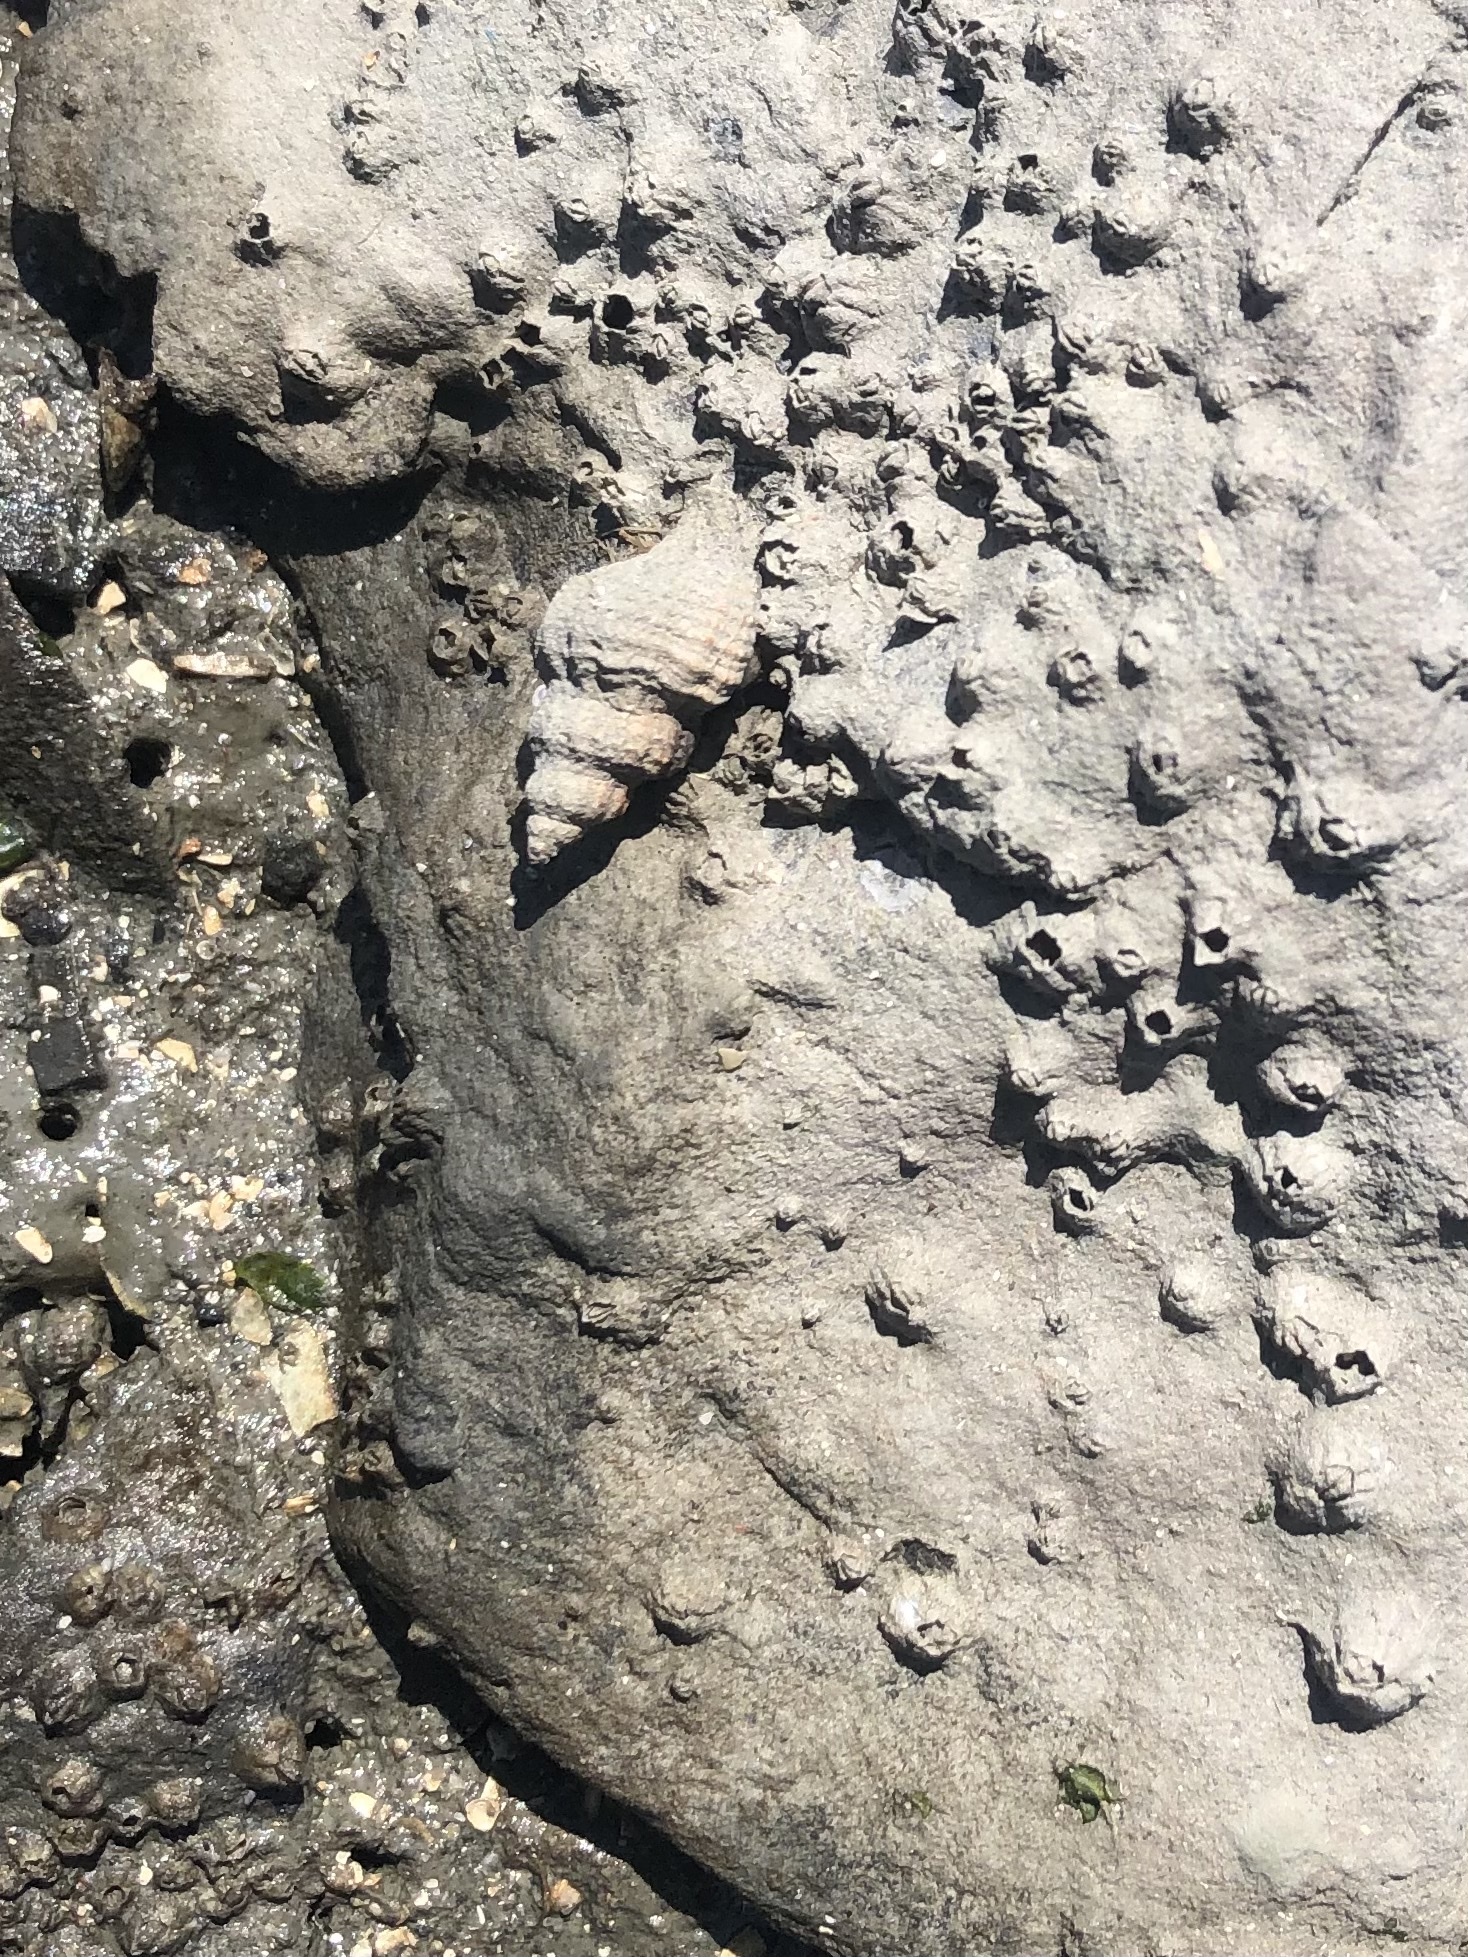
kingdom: Animalia
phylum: Mollusca
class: Gastropoda
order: Neogastropoda
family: Muricidae
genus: Urosalpinx
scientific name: Urosalpinx cinerea
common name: American sting winkle
